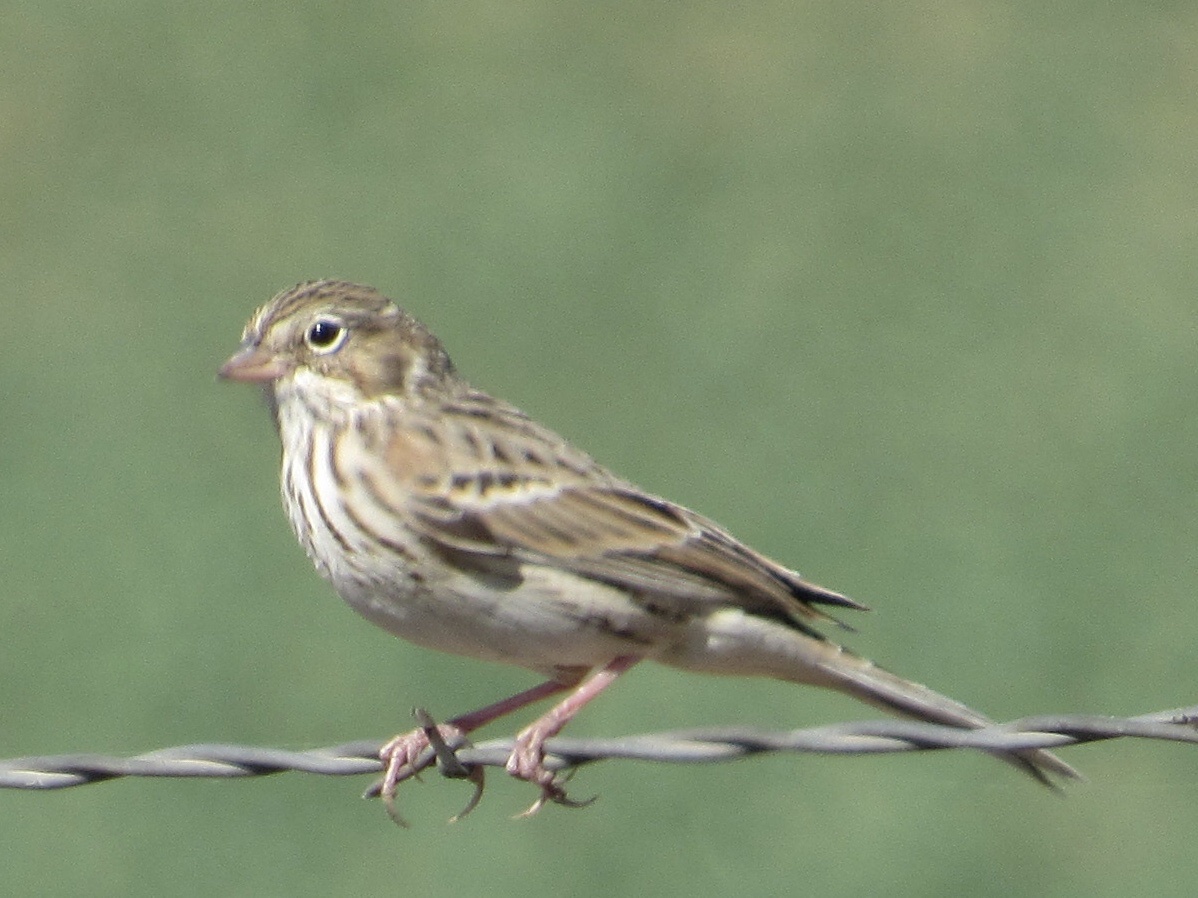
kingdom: Animalia
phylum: Chordata
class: Aves
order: Passeriformes
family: Passerellidae
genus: Pooecetes
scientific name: Pooecetes gramineus
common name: Vesper sparrow
